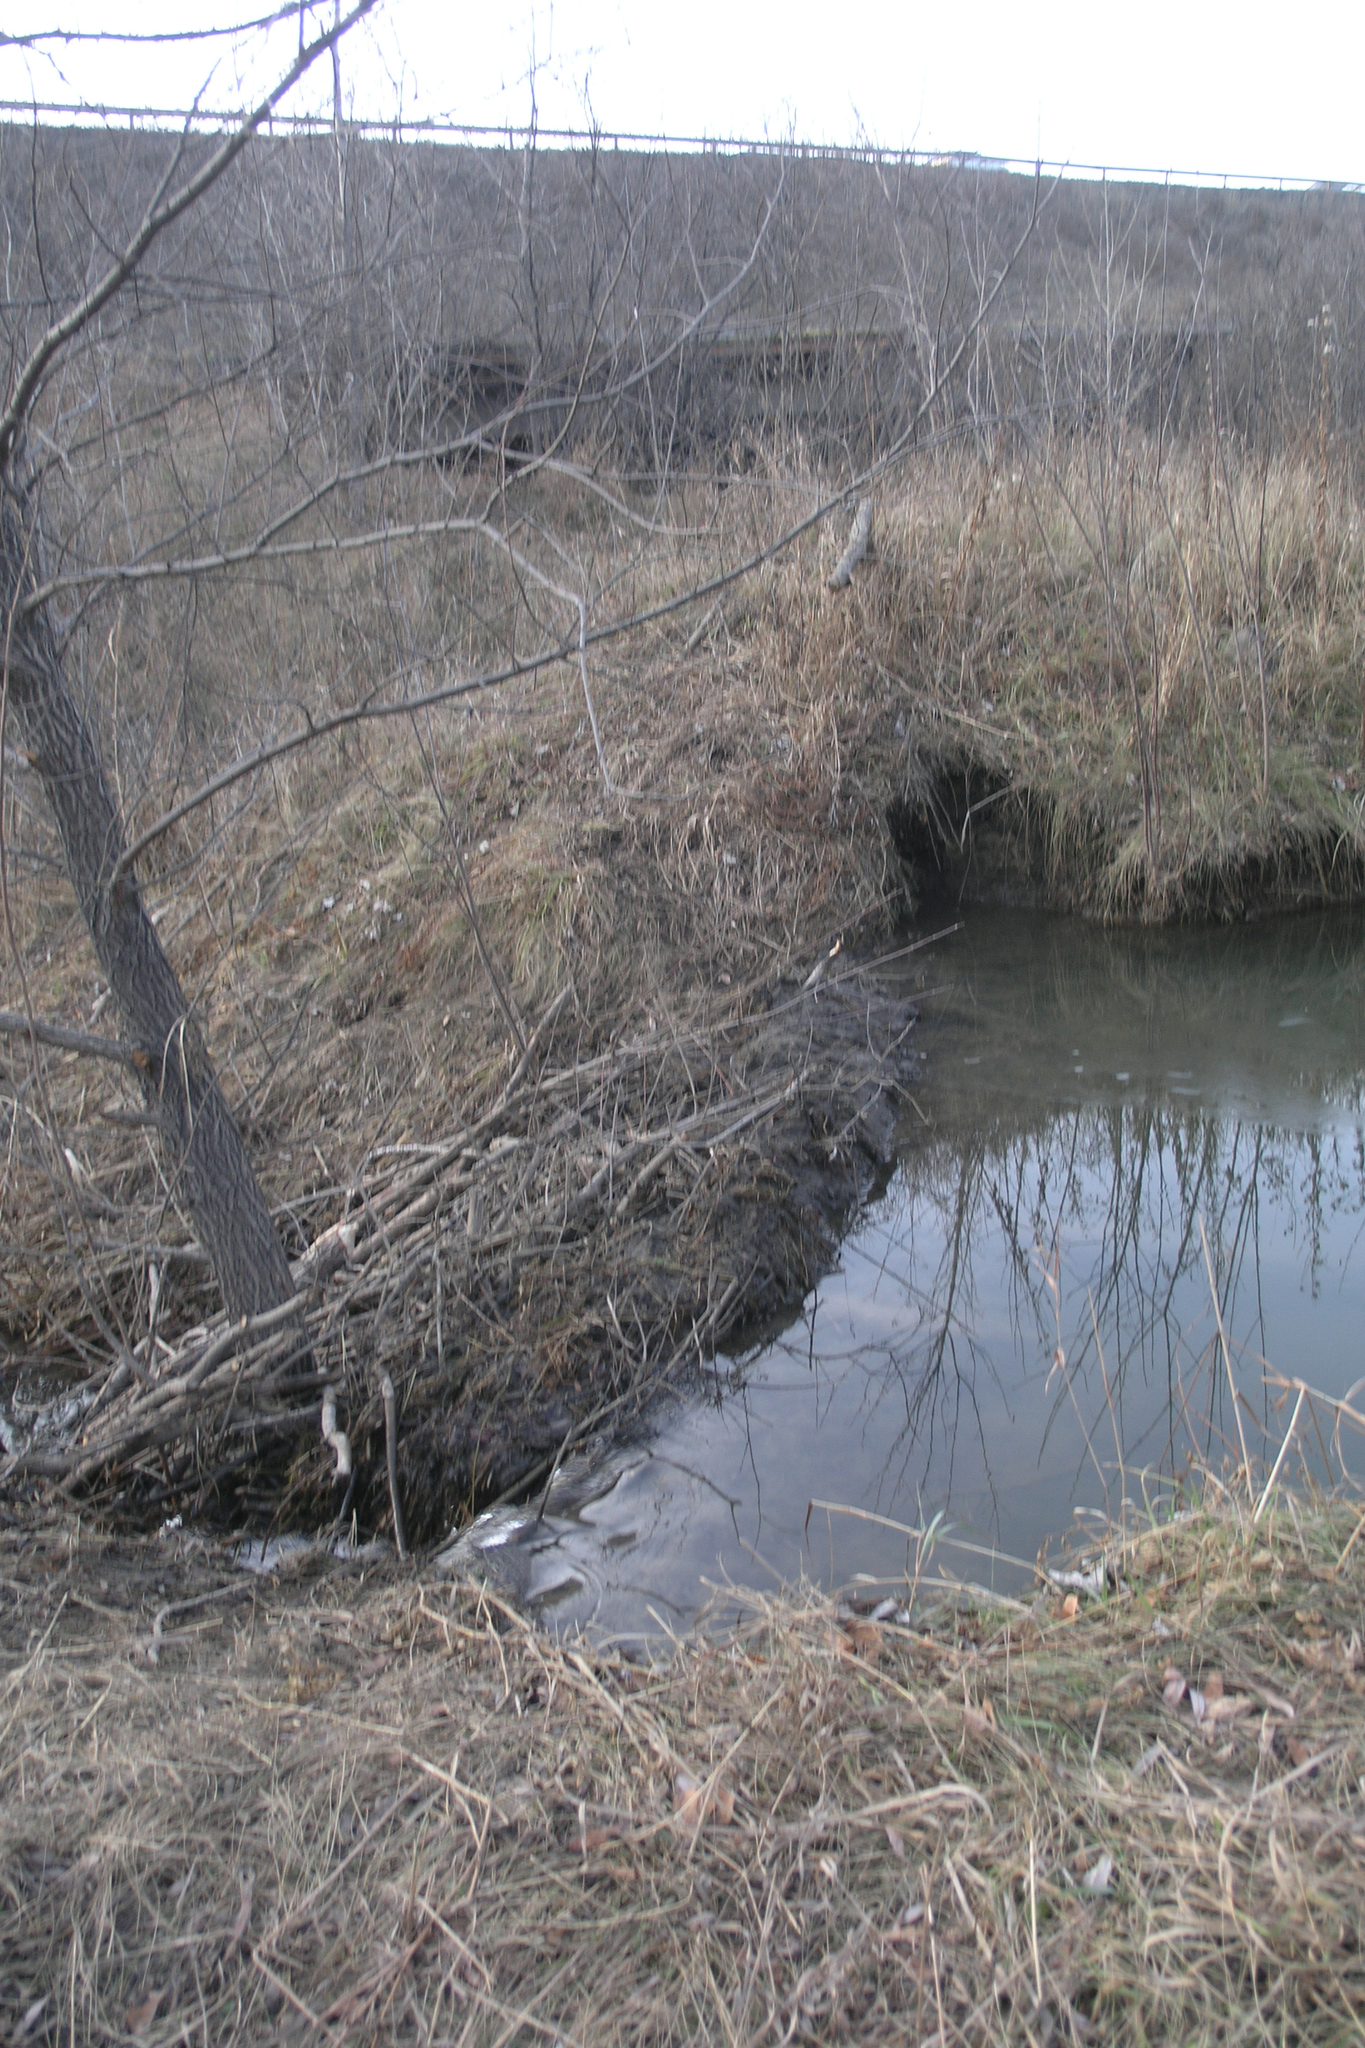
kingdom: Animalia
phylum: Chordata
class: Mammalia
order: Rodentia
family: Castoridae
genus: Castor
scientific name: Castor fiber
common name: Eurasian beaver
